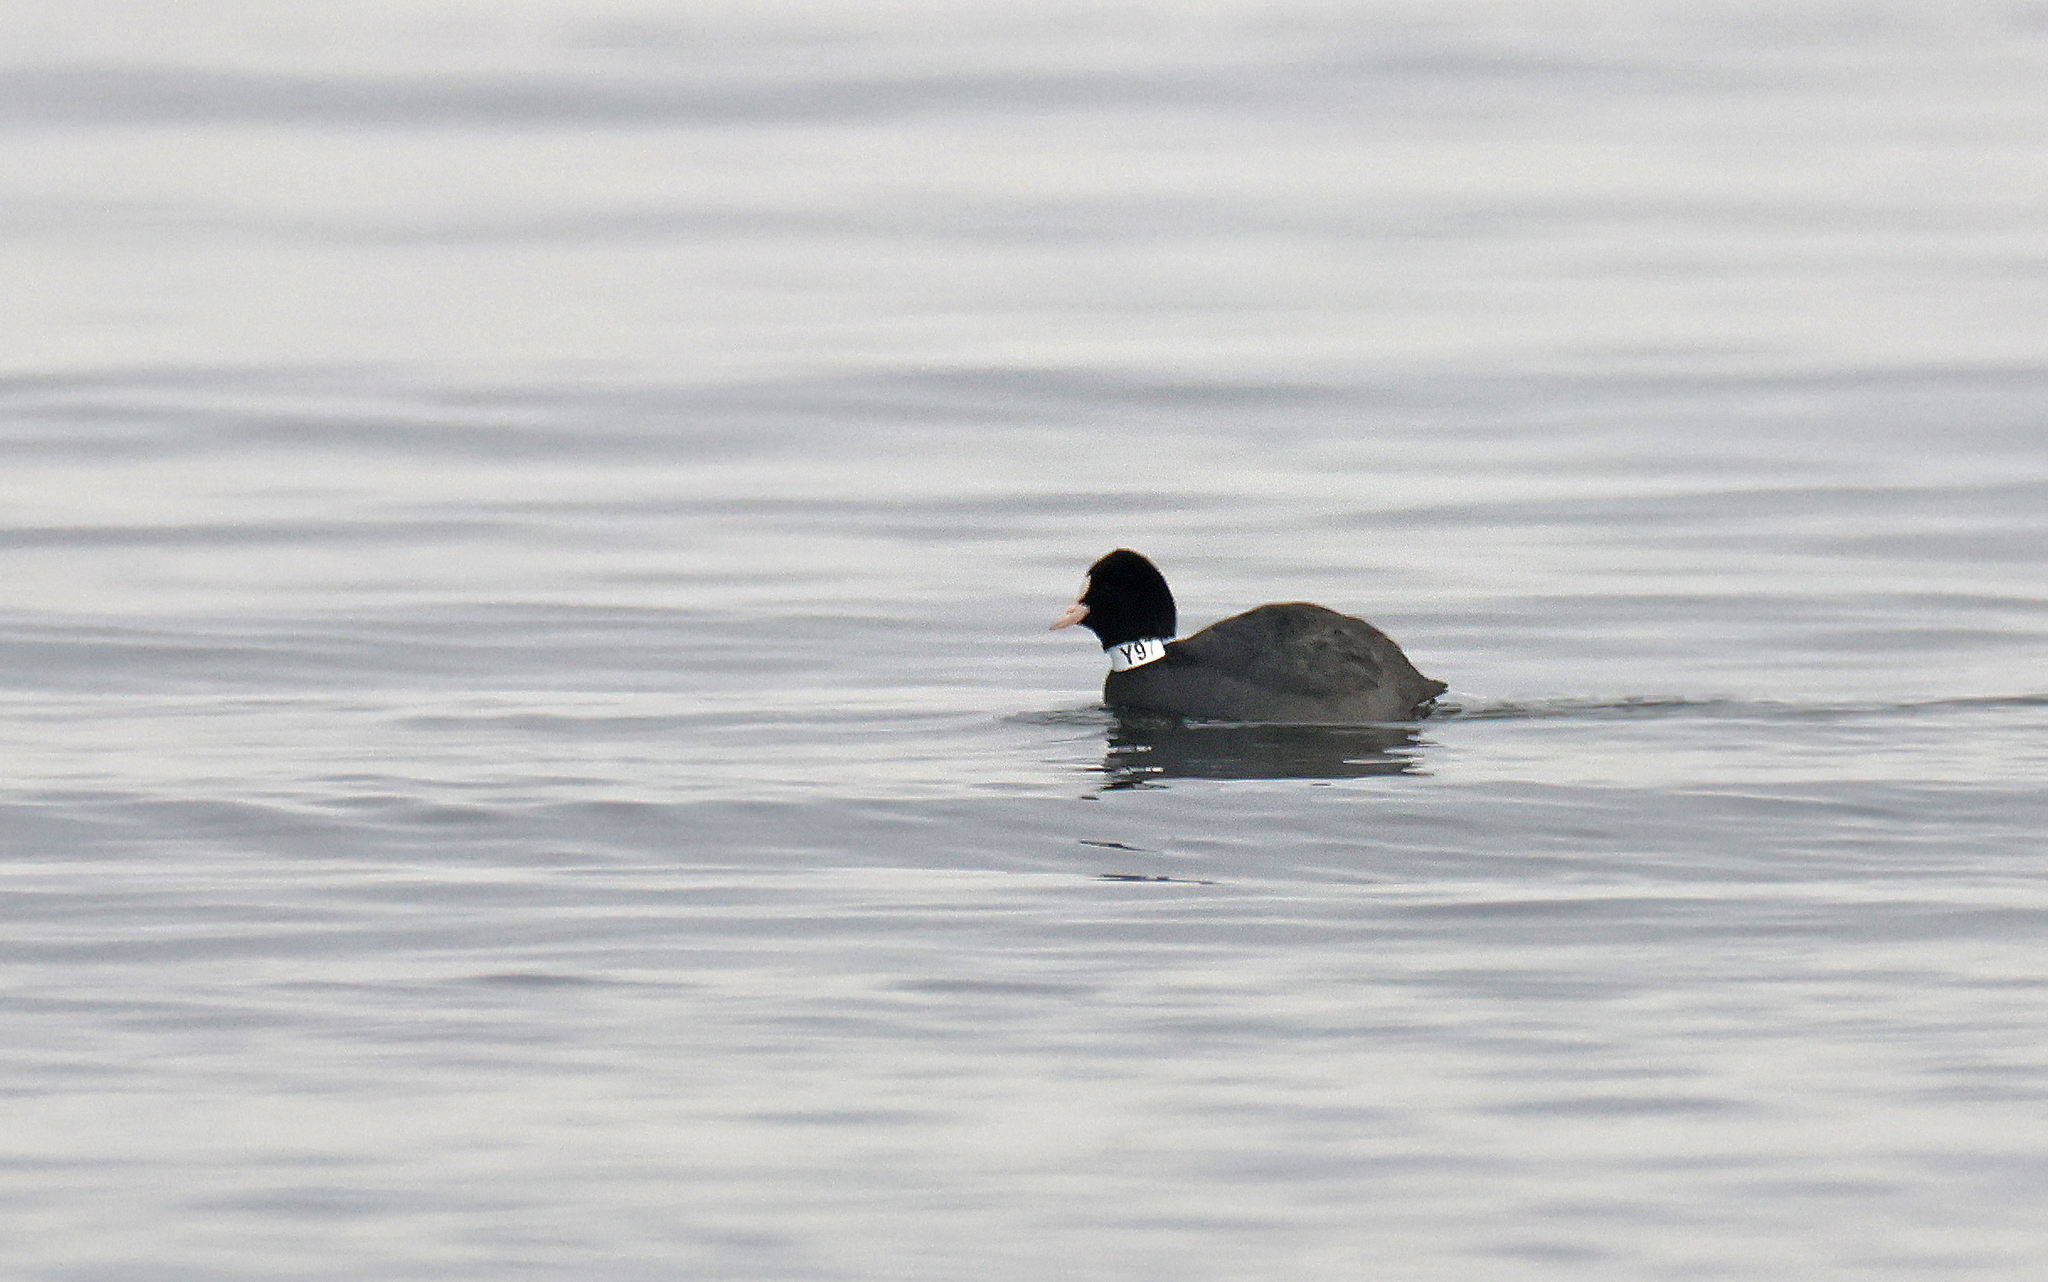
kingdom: Animalia
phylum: Chordata
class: Aves
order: Gruiformes
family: Rallidae
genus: Fulica
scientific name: Fulica atra
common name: Eurasian coot
